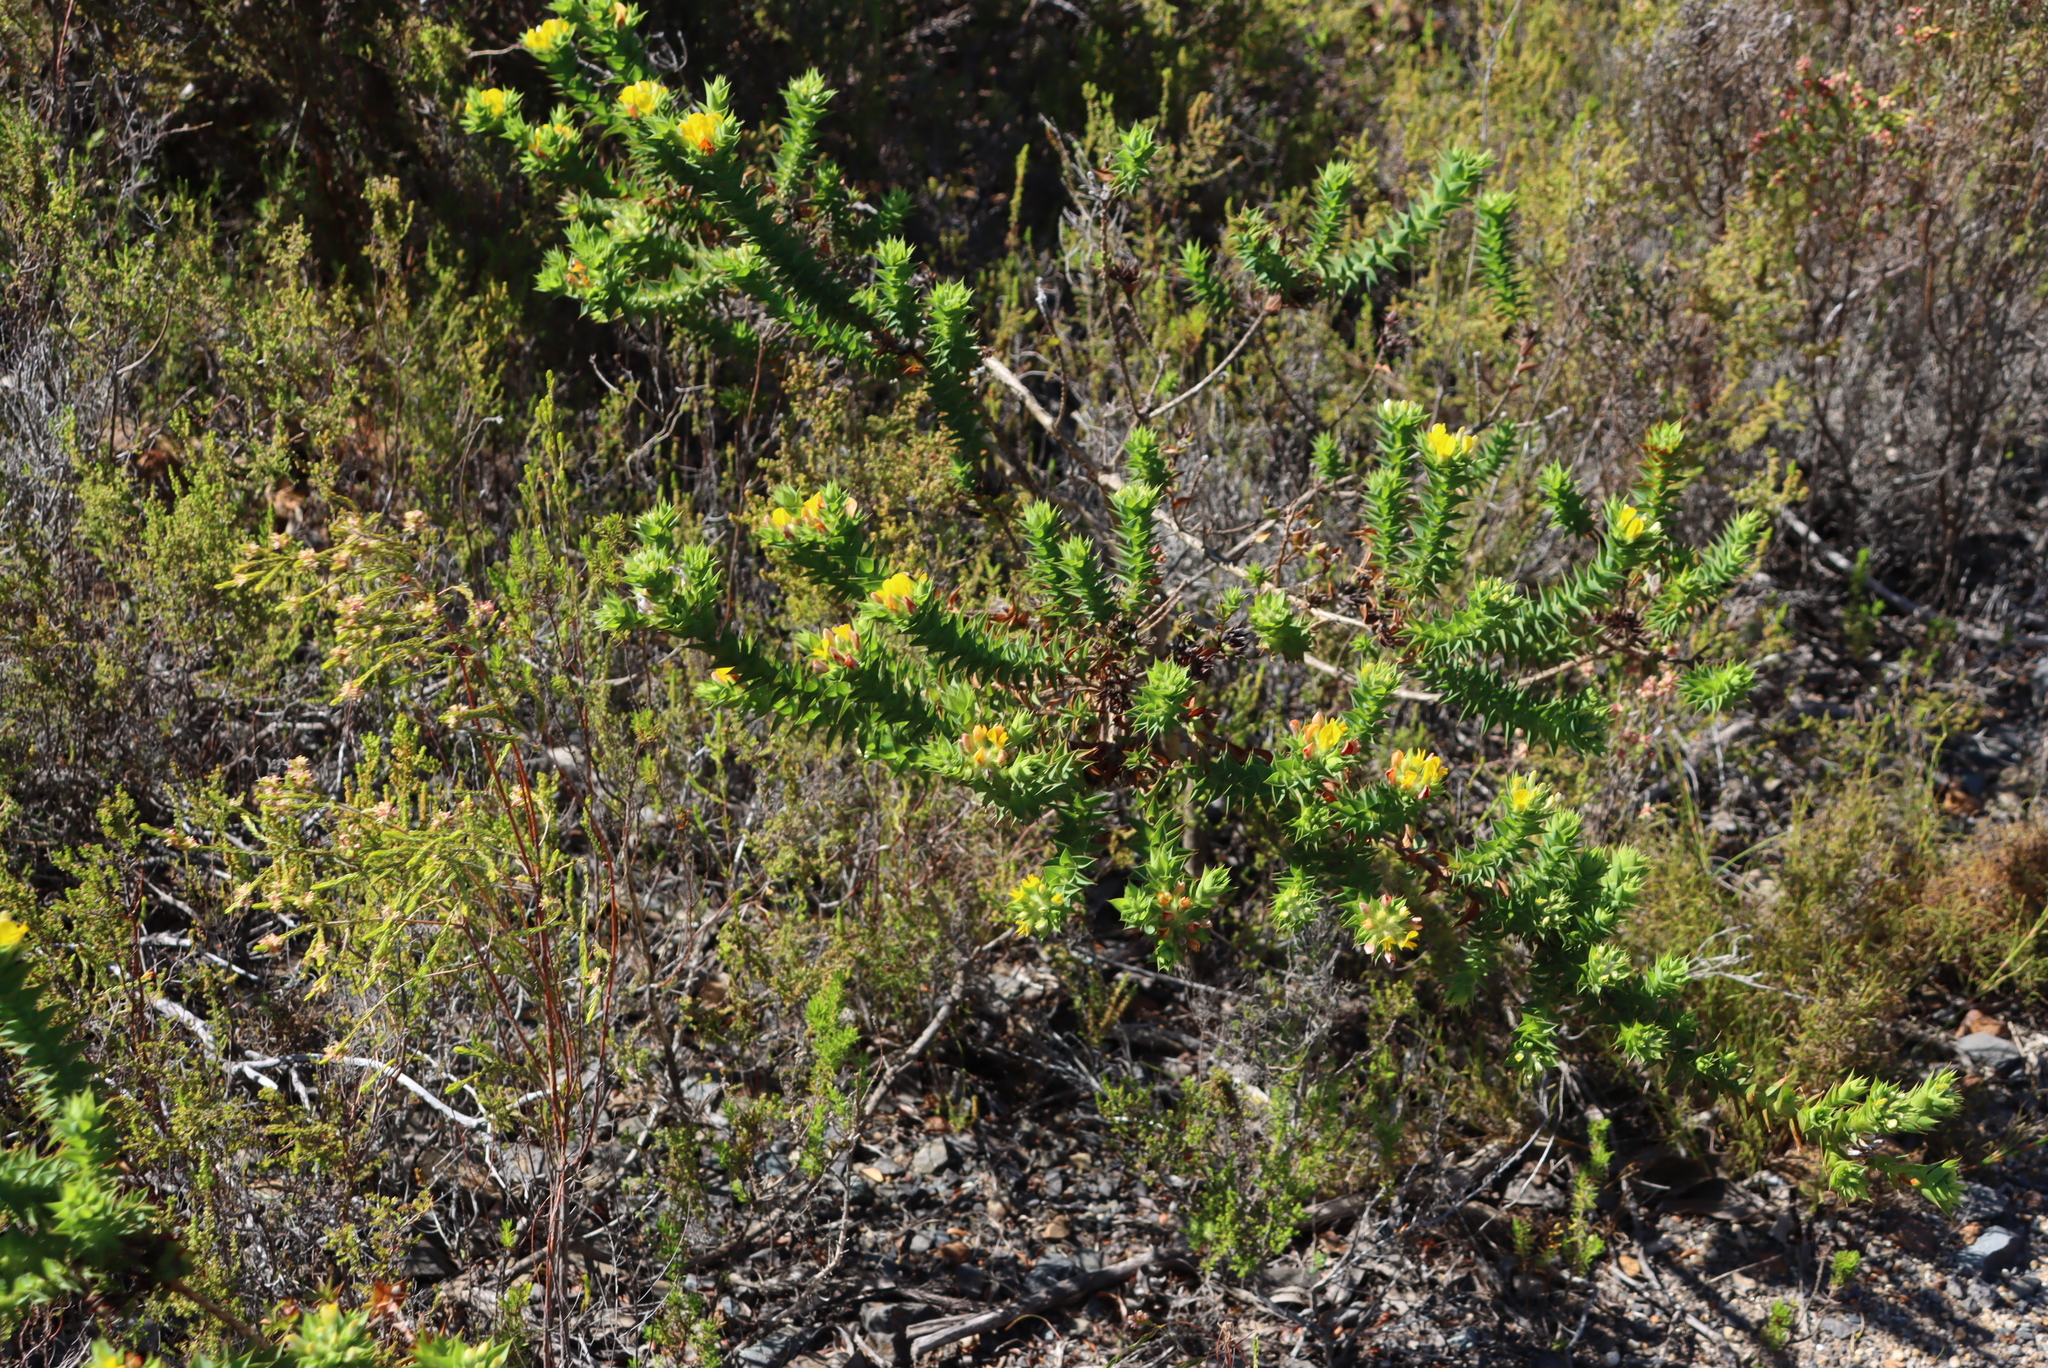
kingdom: Plantae
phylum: Tracheophyta
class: Magnoliopsida
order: Fabales
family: Fabaceae
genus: Aspalathus
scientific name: Aspalathus cordata
